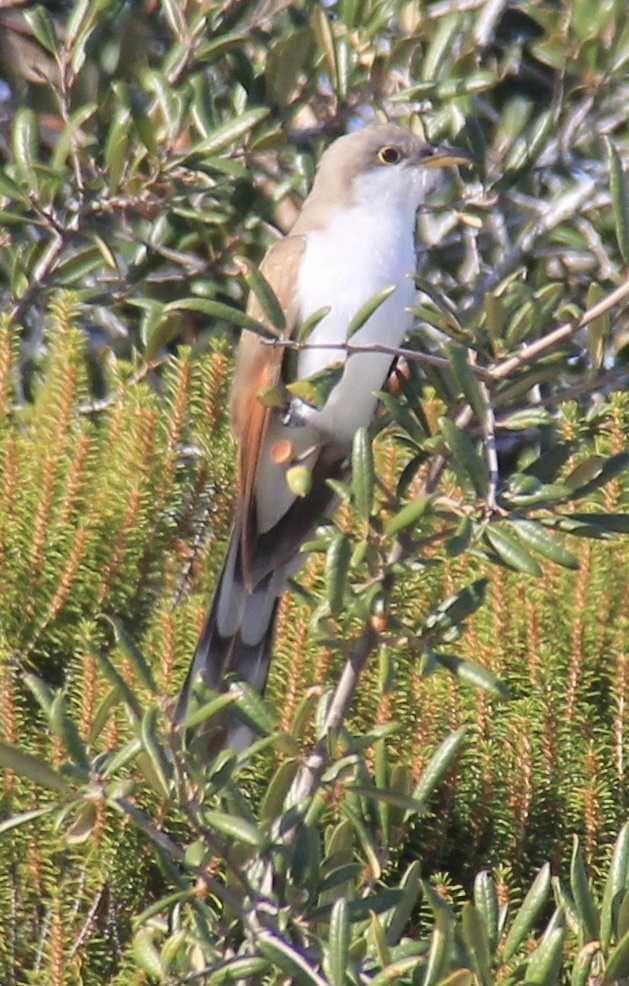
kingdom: Animalia
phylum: Chordata
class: Aves
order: Cuculiformes
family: Cuculidae
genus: Coccyzus
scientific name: Coccyzus americanus
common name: Yellow-billed cuckoo
